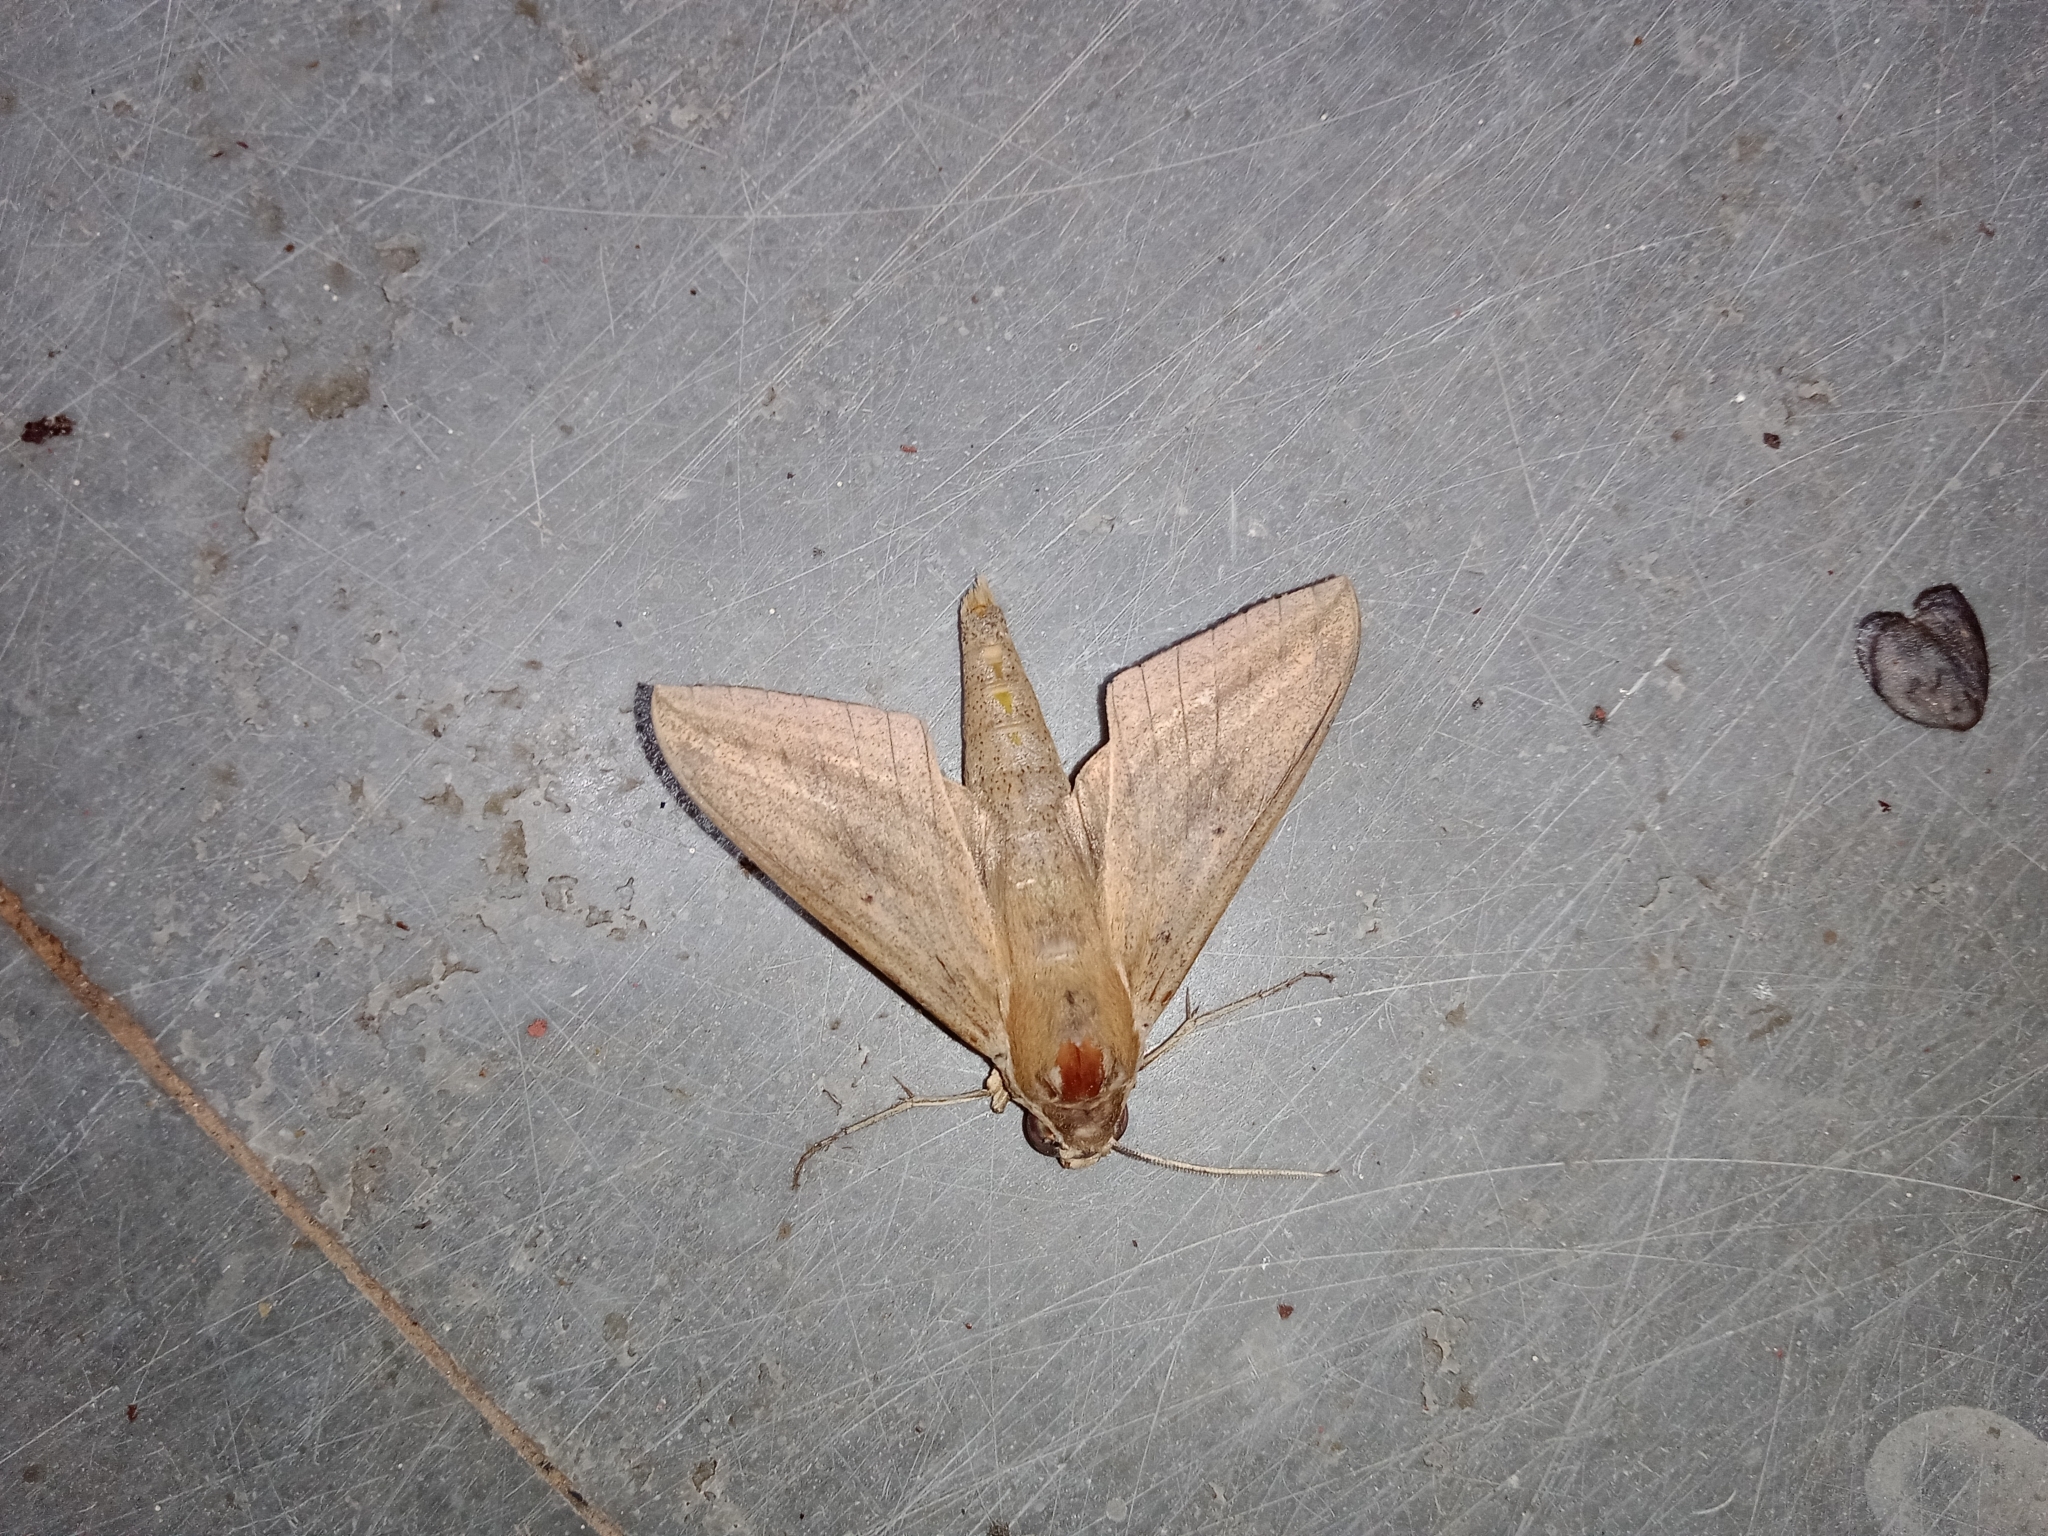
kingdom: Animalia
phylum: Arthropoda
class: Insecta
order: Lepidoptera
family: Sphingidae
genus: Theretra
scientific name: Theretra rhesus
